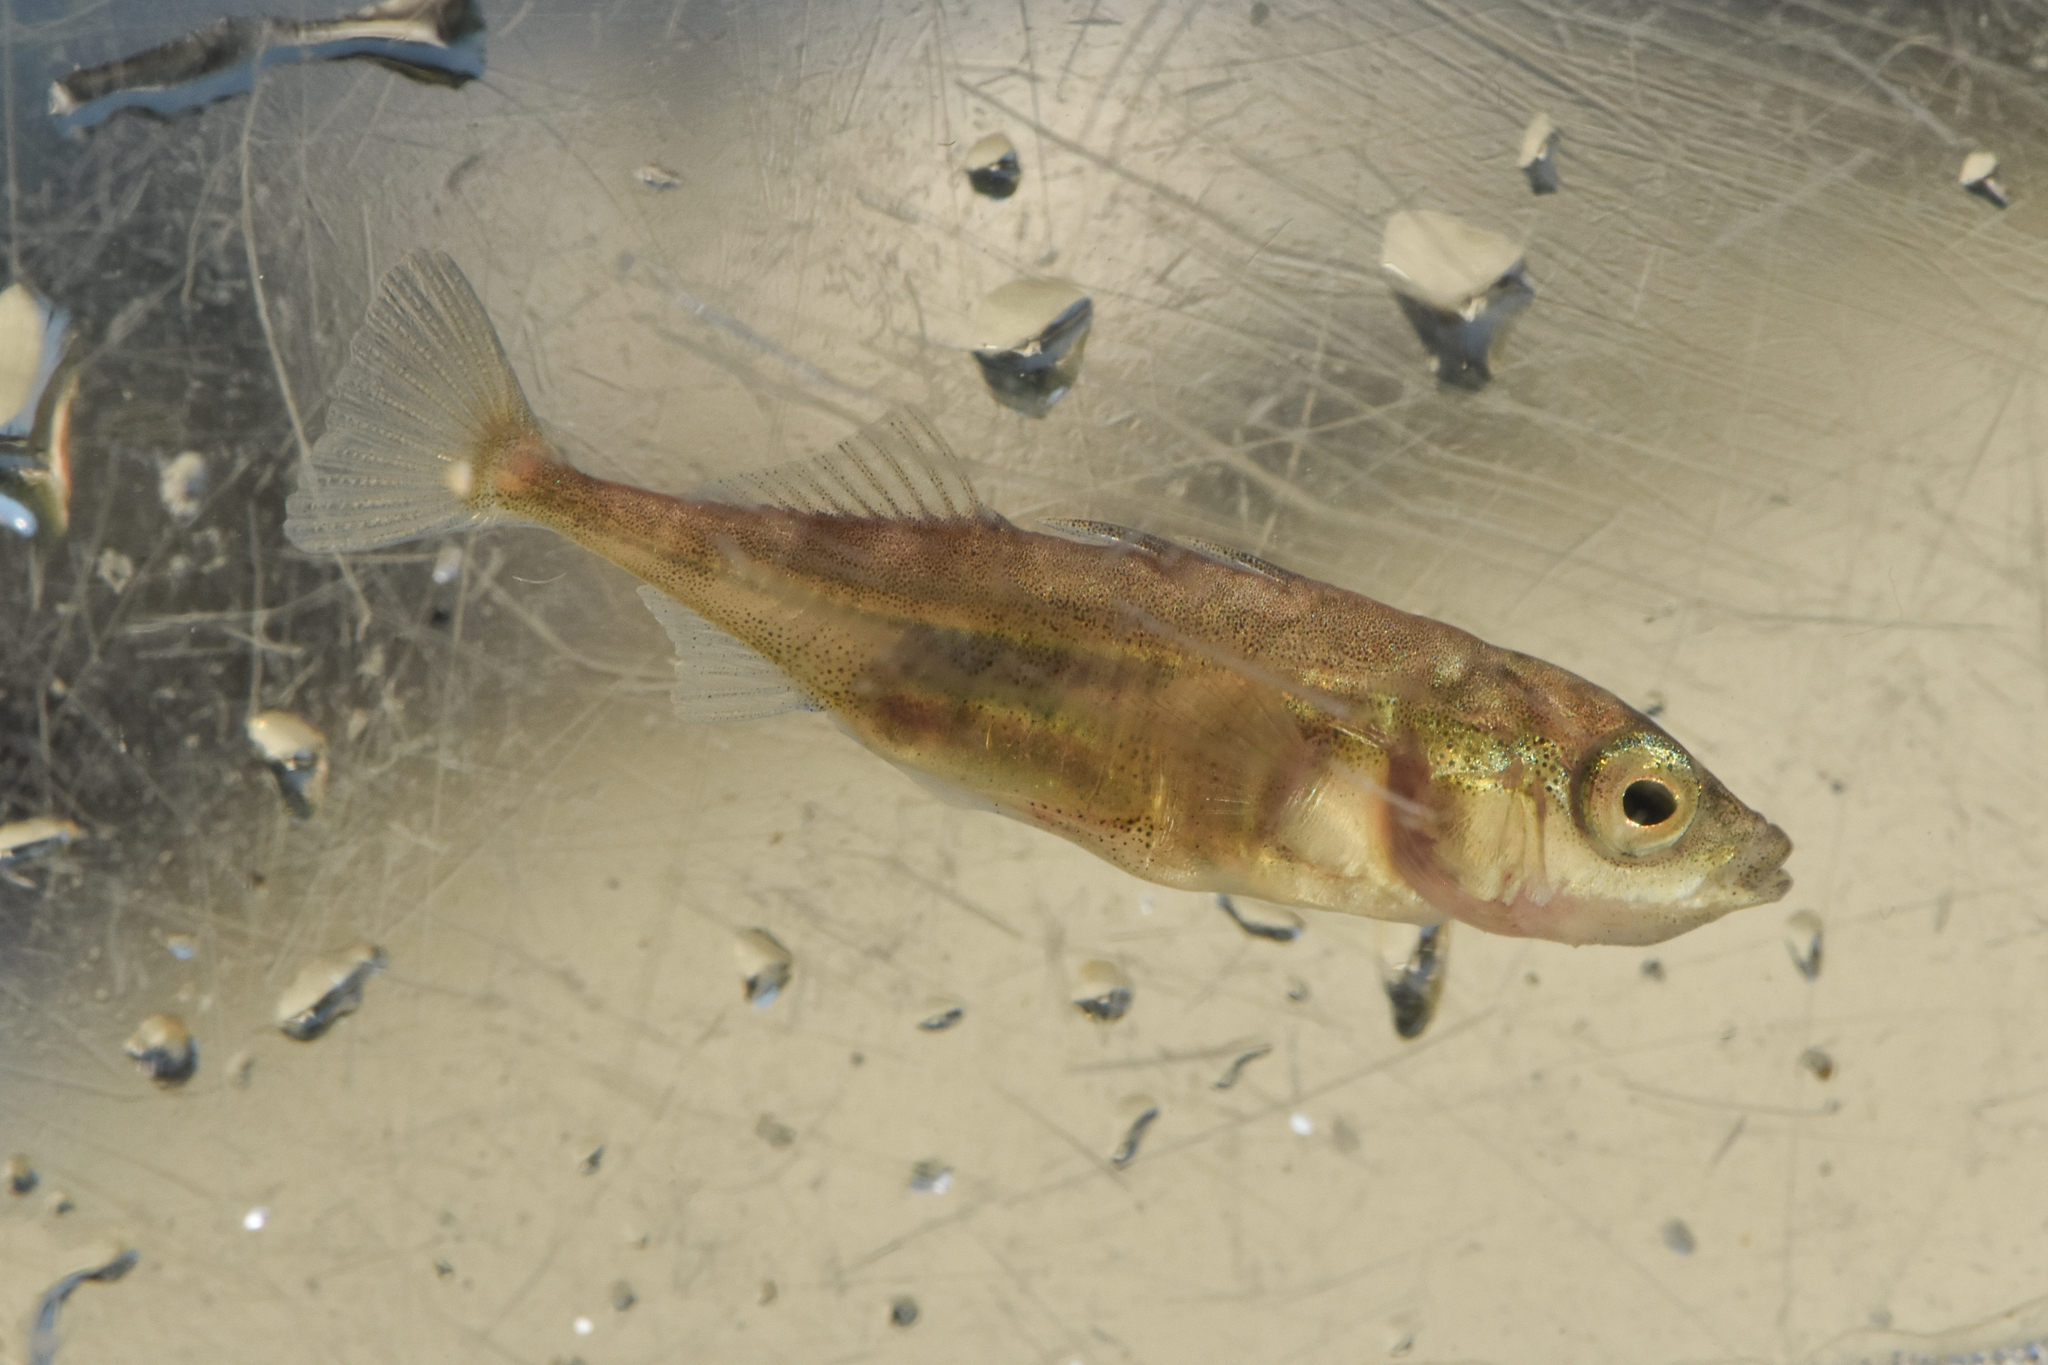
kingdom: Animalia
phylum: Chordata
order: Gasterosteiformes
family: Gasterosteidae
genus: Gasterosteus
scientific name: Gasterosteus aculeatus
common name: Three-spined stickleback
